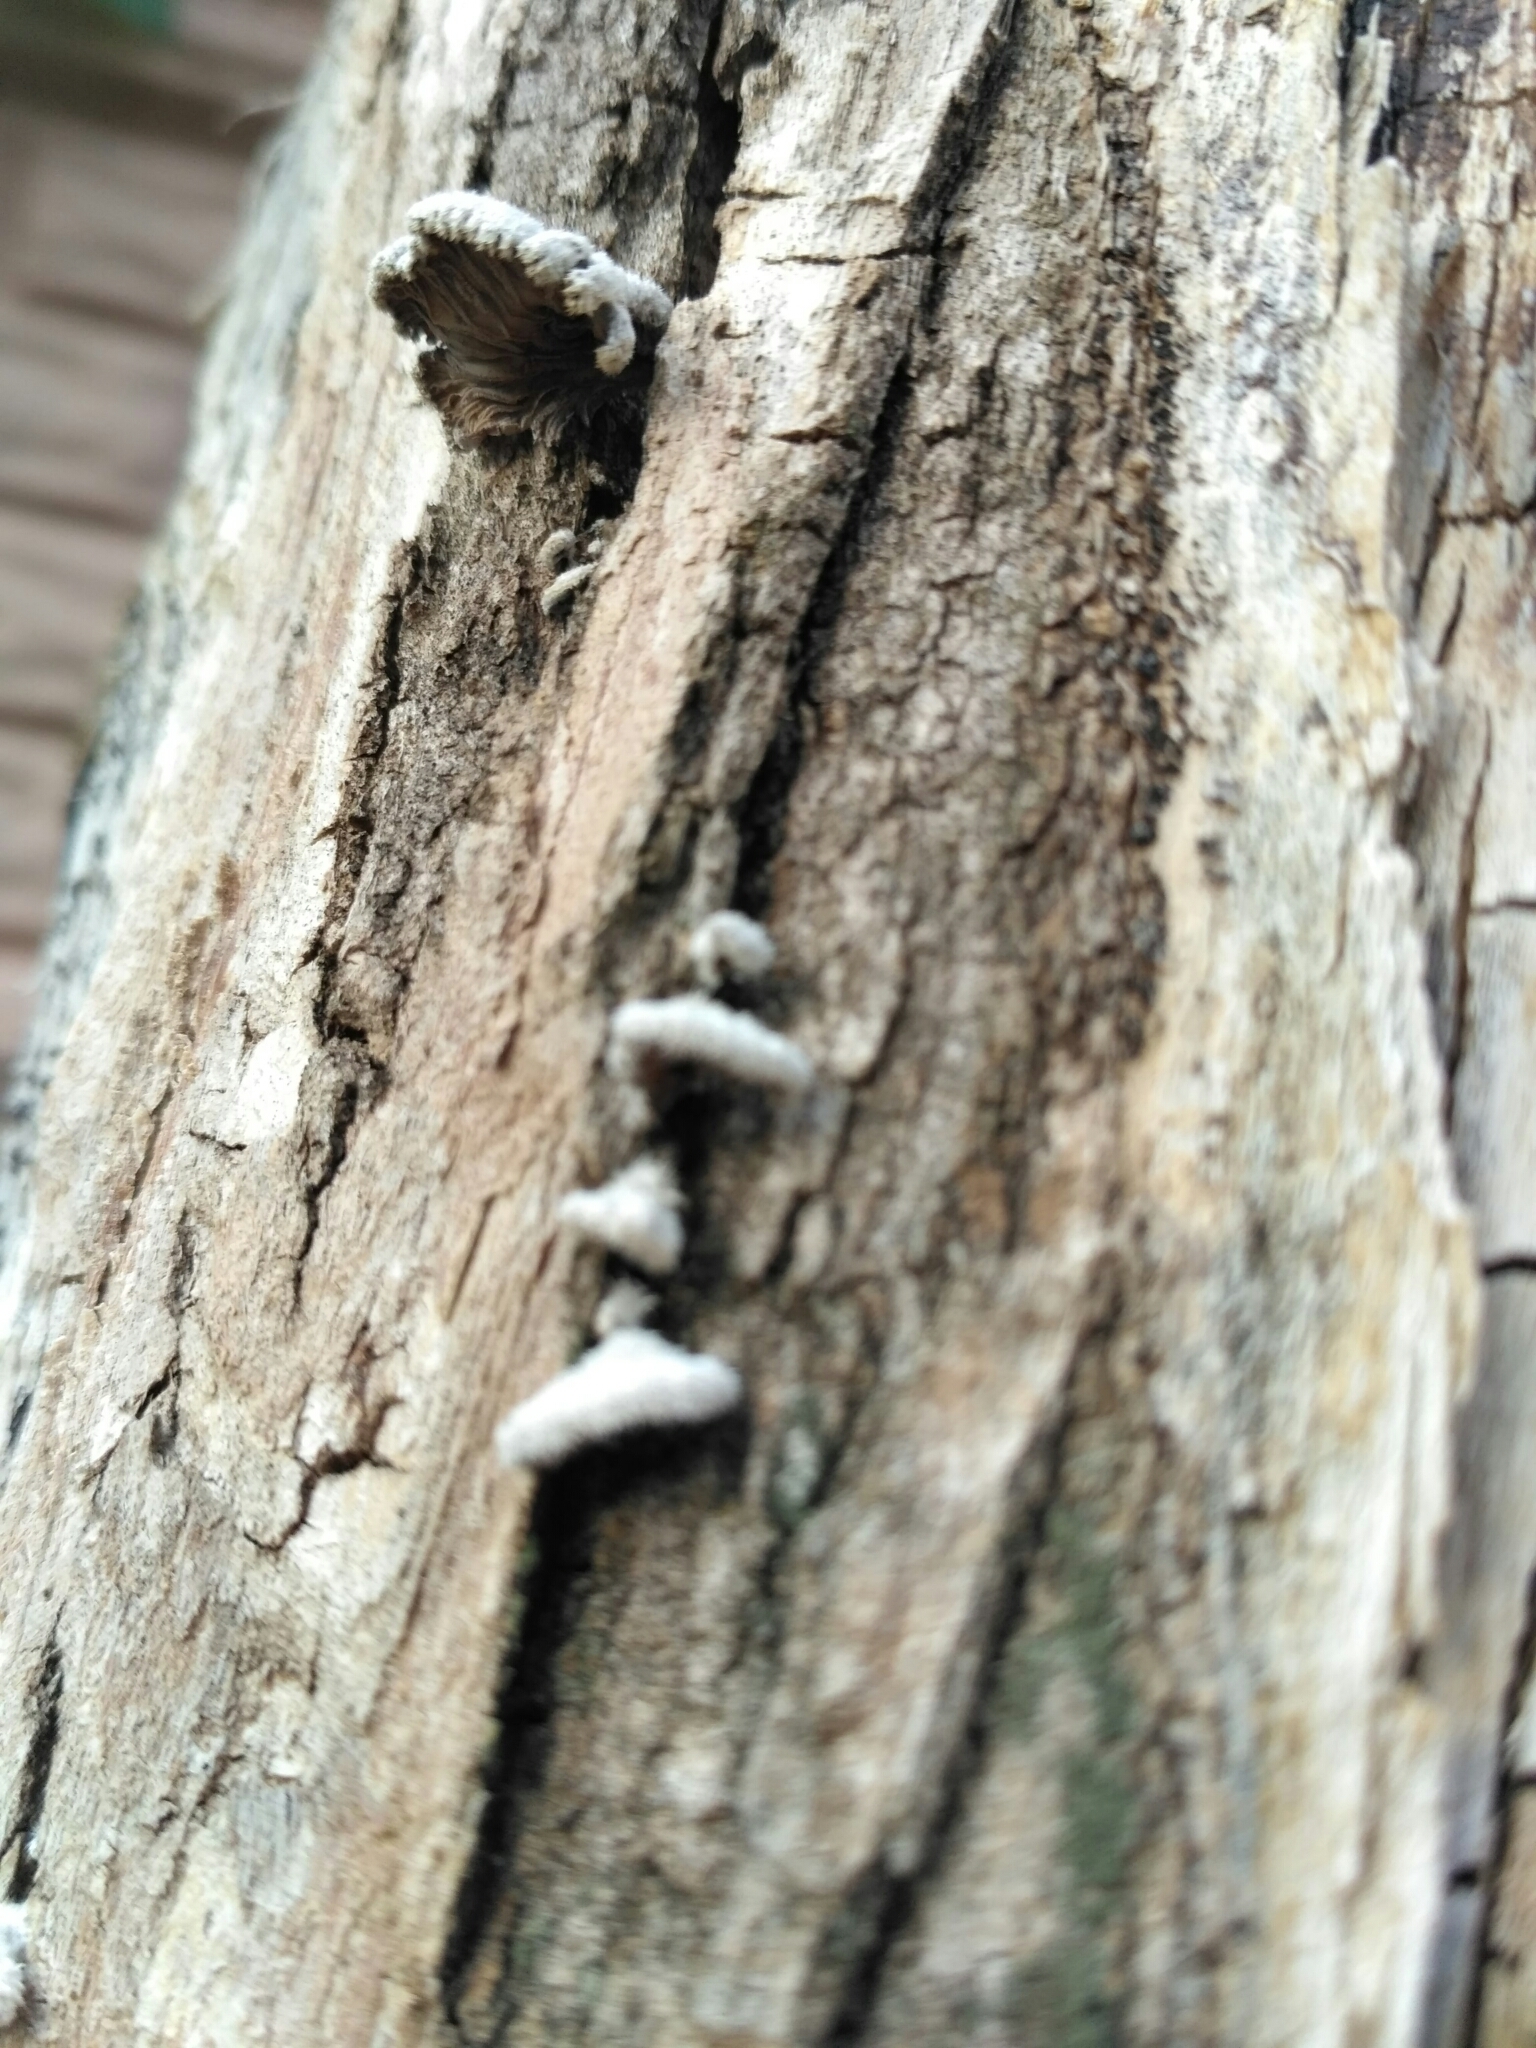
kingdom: Fungi
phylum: Basidiomycota
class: Agaricomycetes
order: Agaricales
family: Schizophyllaceae
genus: Schizophyllum
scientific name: Schizophyllum commune
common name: Common porecrust
